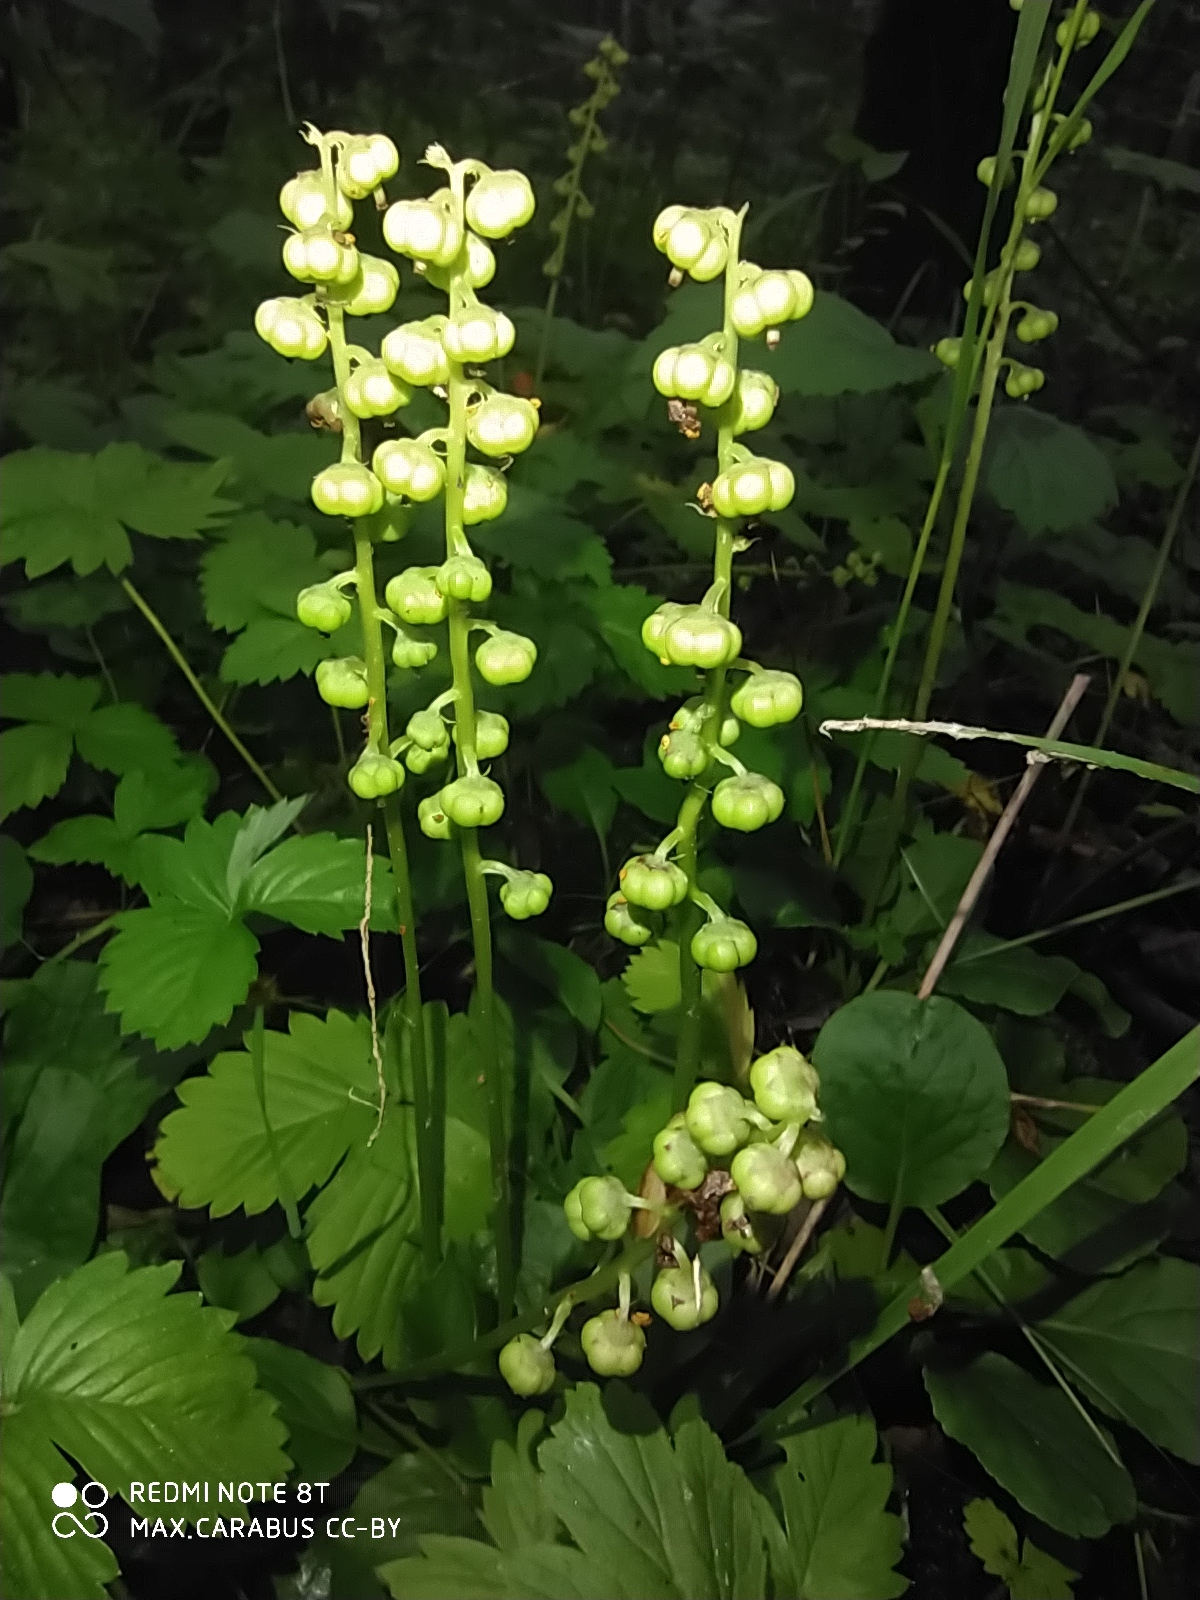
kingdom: Plantae
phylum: Tracheophyta
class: Magnoliopsida
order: Ericales
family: Ericaceae
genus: Pyrola
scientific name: Pyrola rotundifolia
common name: Round-leaved wintergreen
